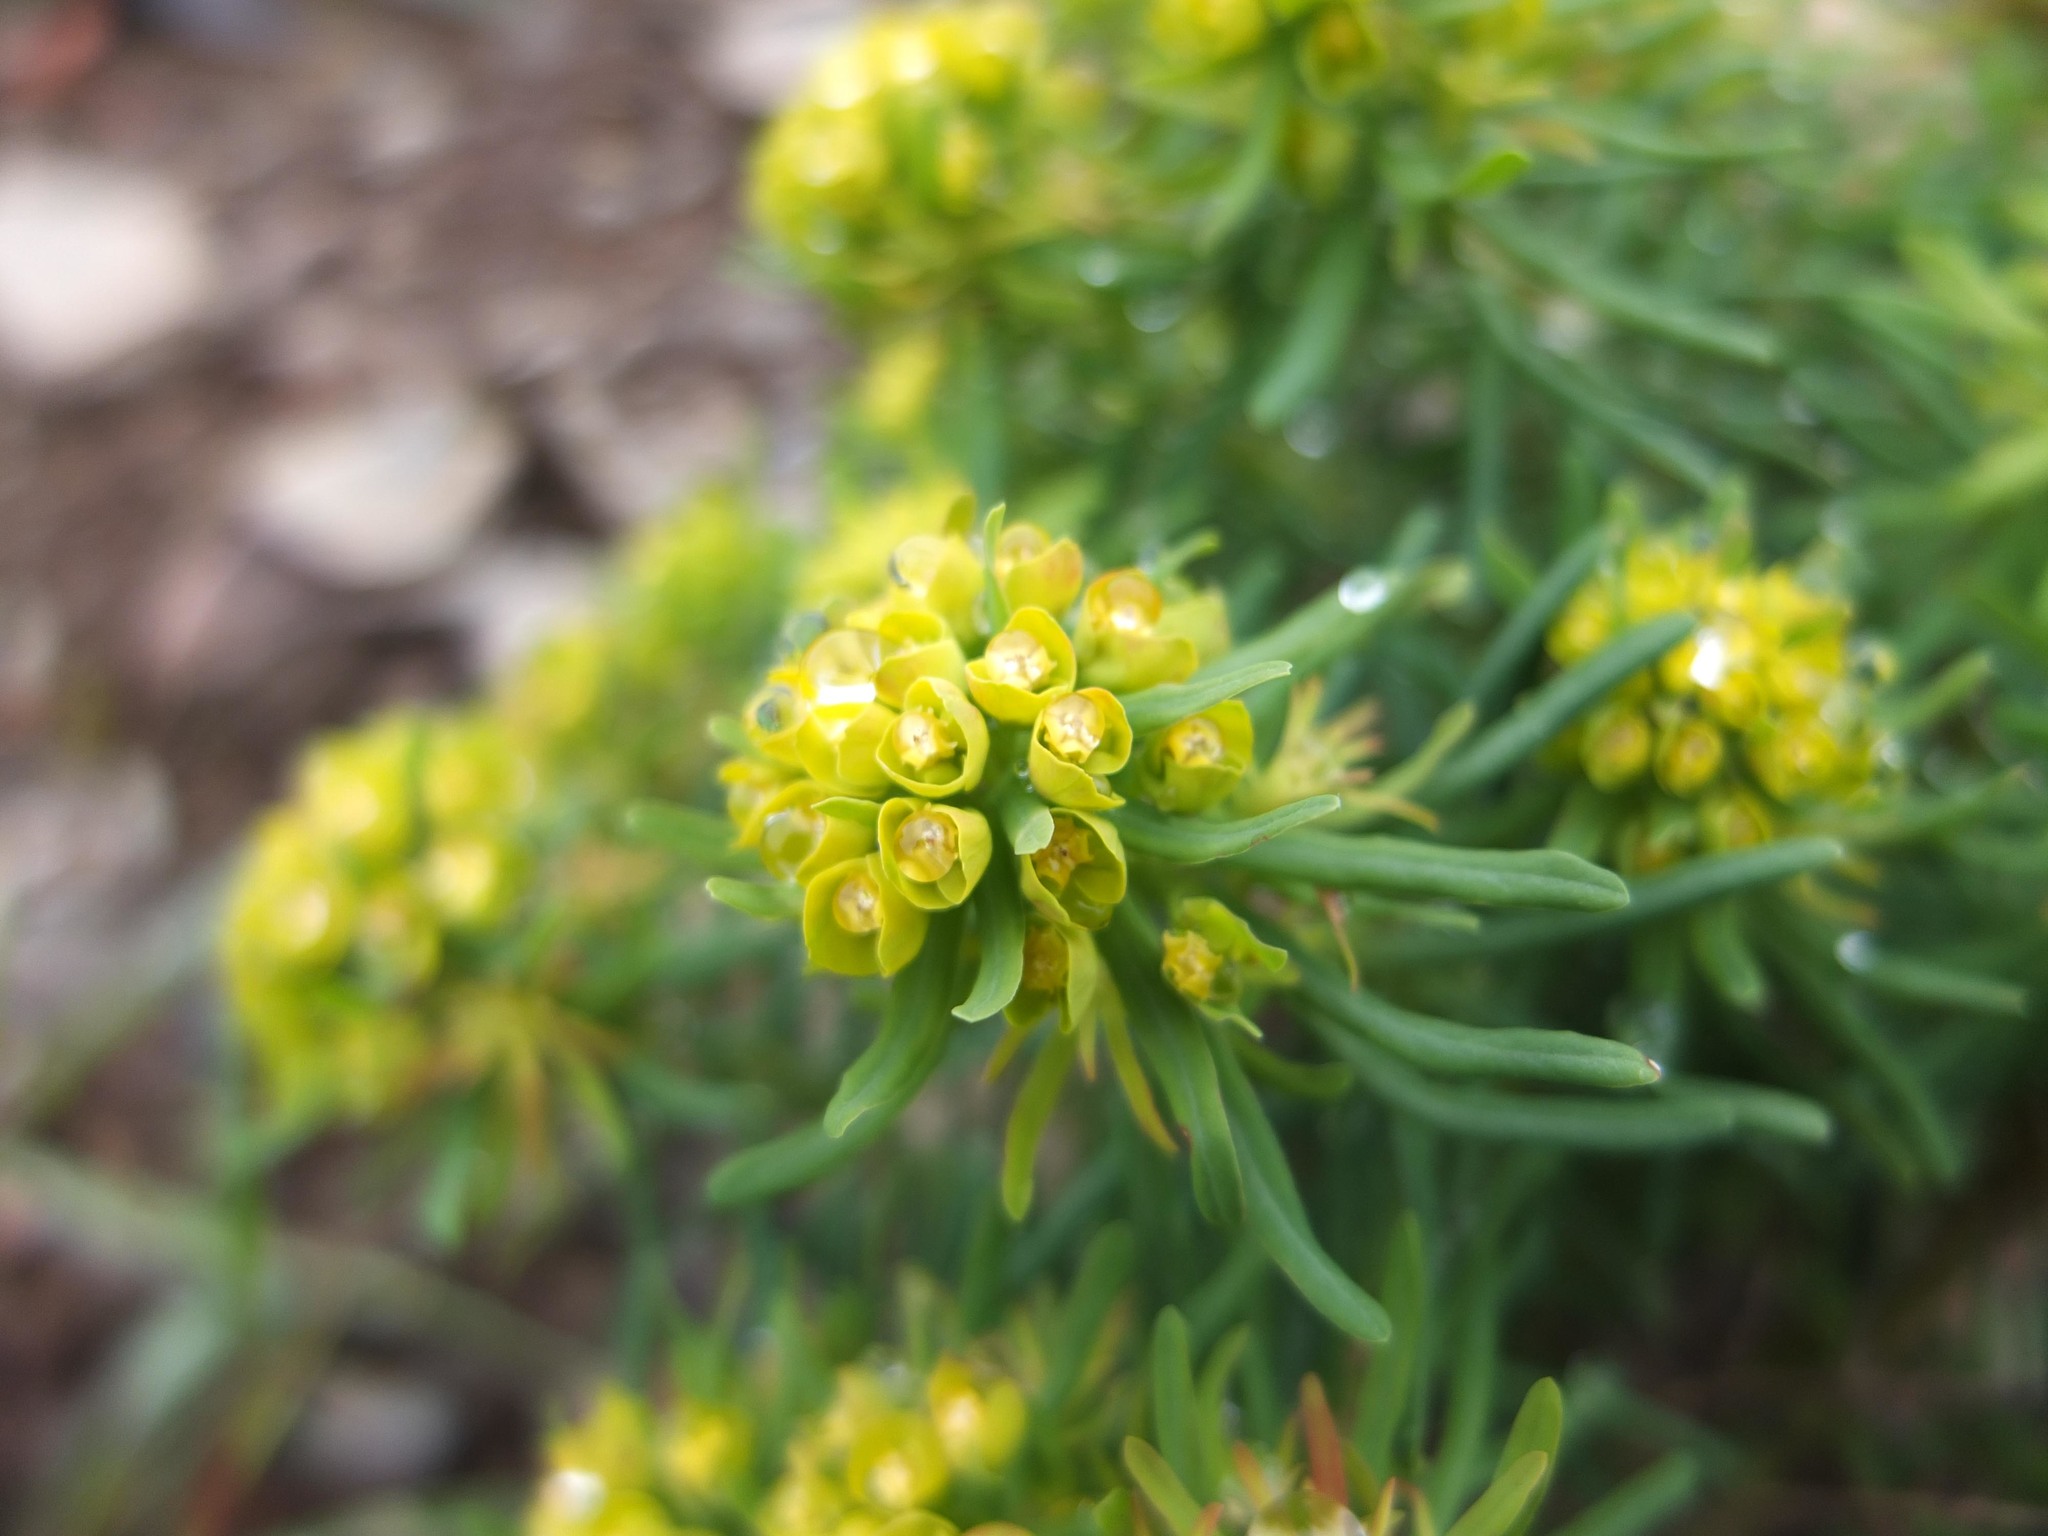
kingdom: Plantae
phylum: Tracheophyta
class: Magnoliopsida
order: Malpighiales
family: Euphorbiaceae
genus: Euphorbia
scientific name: Euphorbia cyparissias
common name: Cypress spurge
